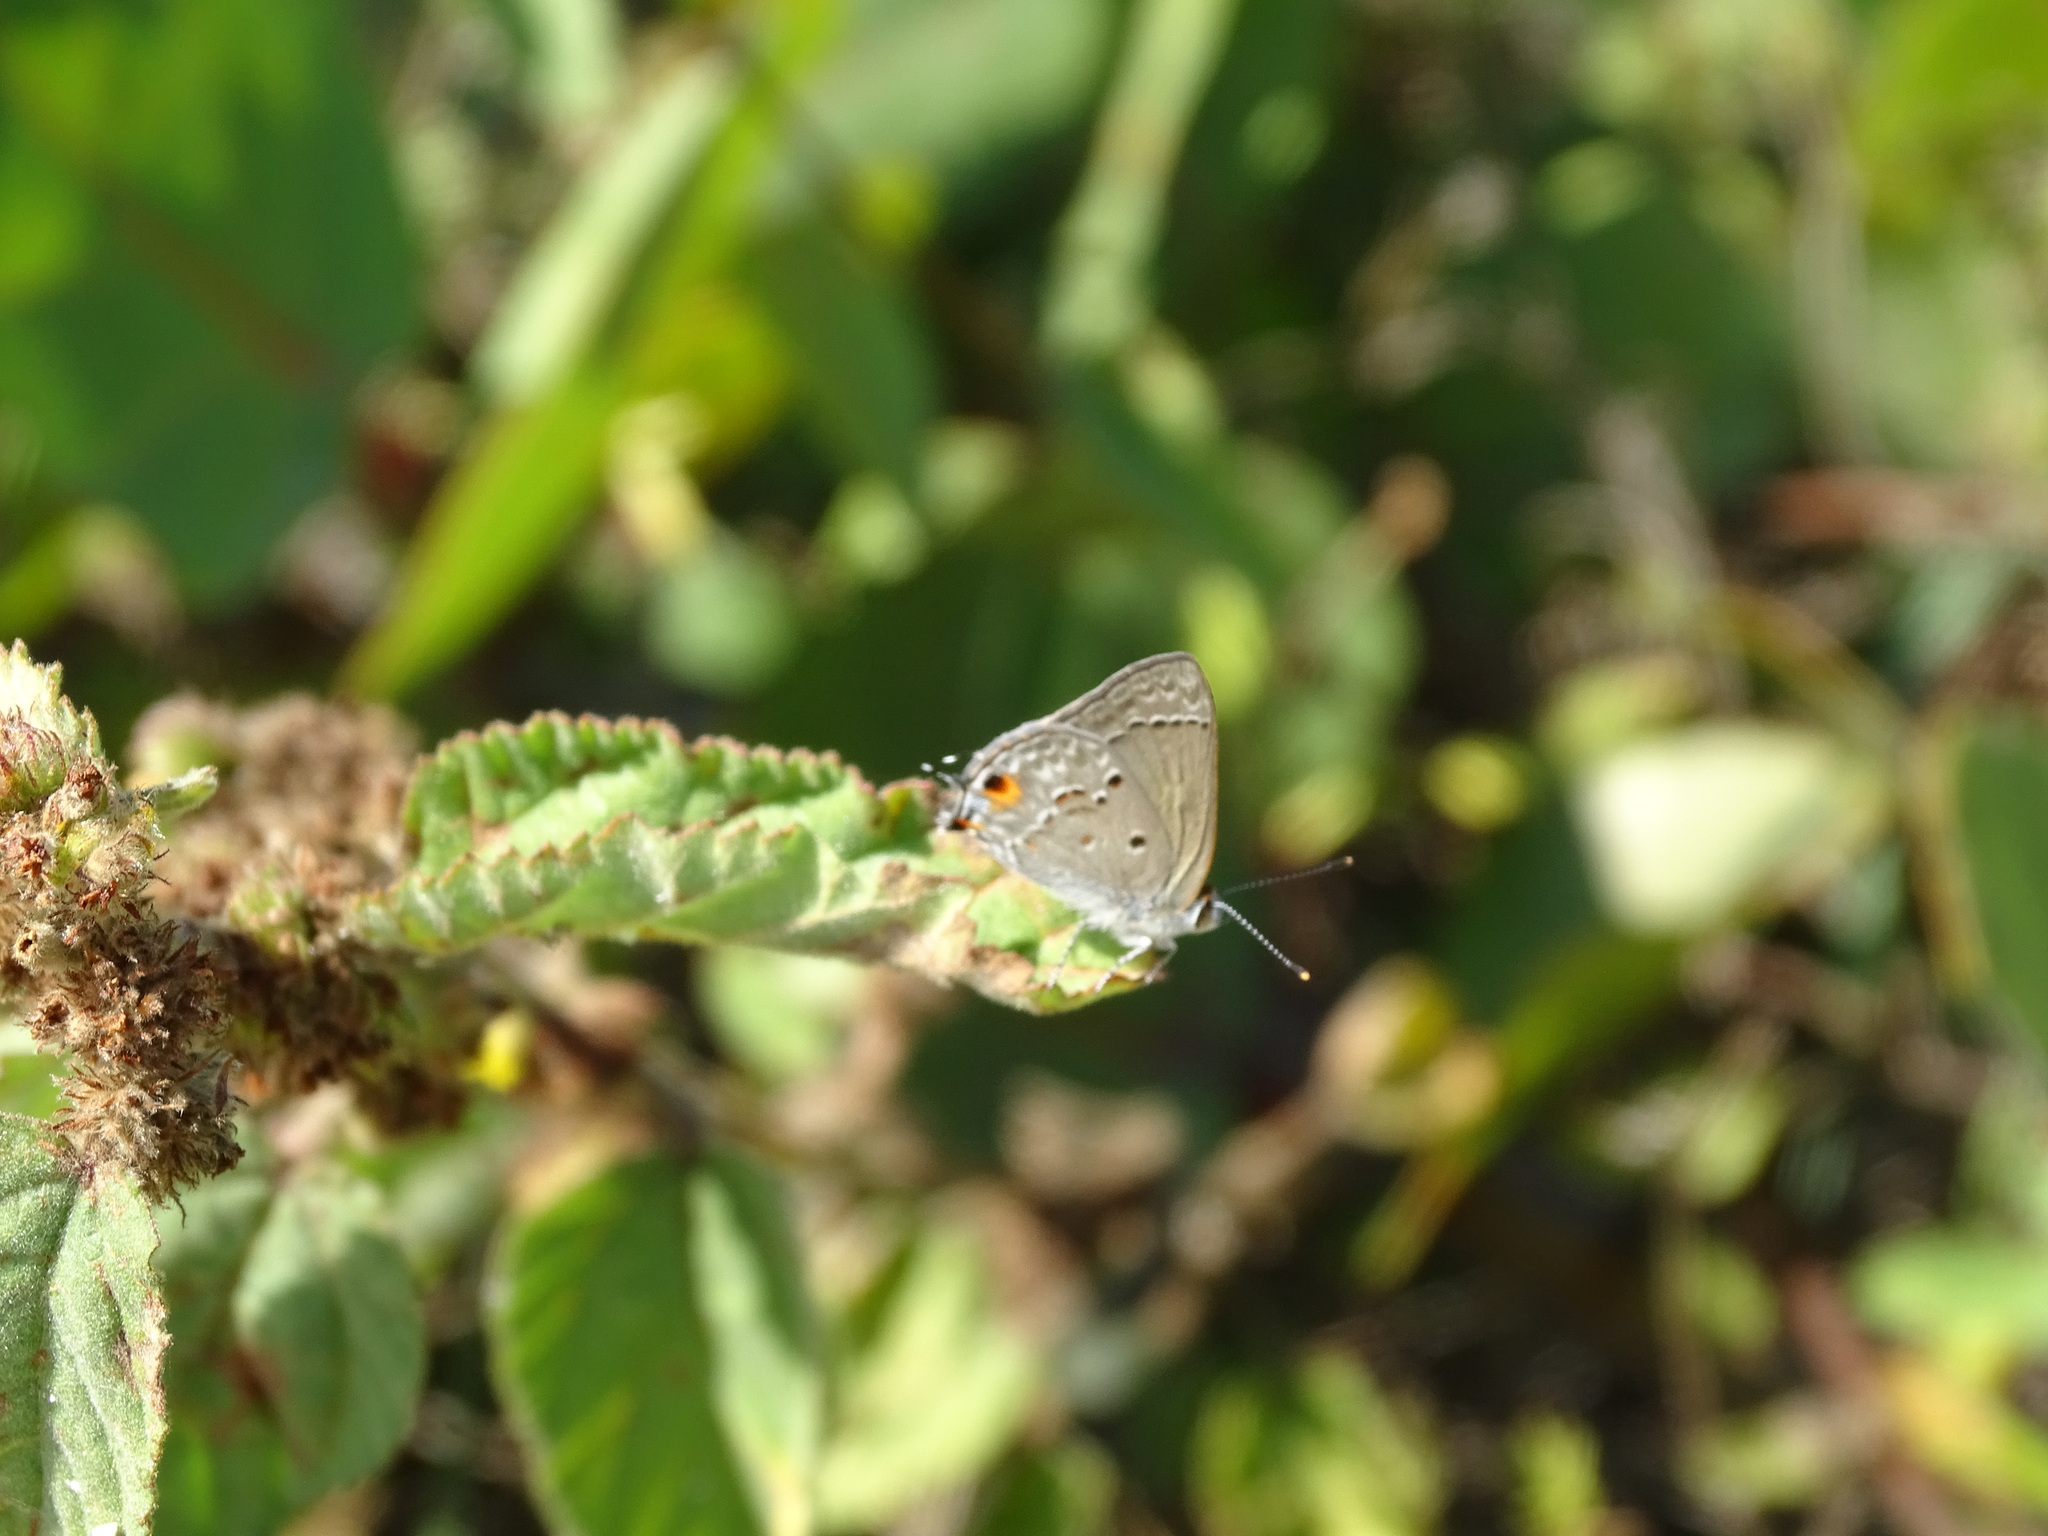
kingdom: Animalia
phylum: Arthropoda
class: Insecta
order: Lepidoptera
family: Lycaenidae
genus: Callicista
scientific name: Callicista columella
